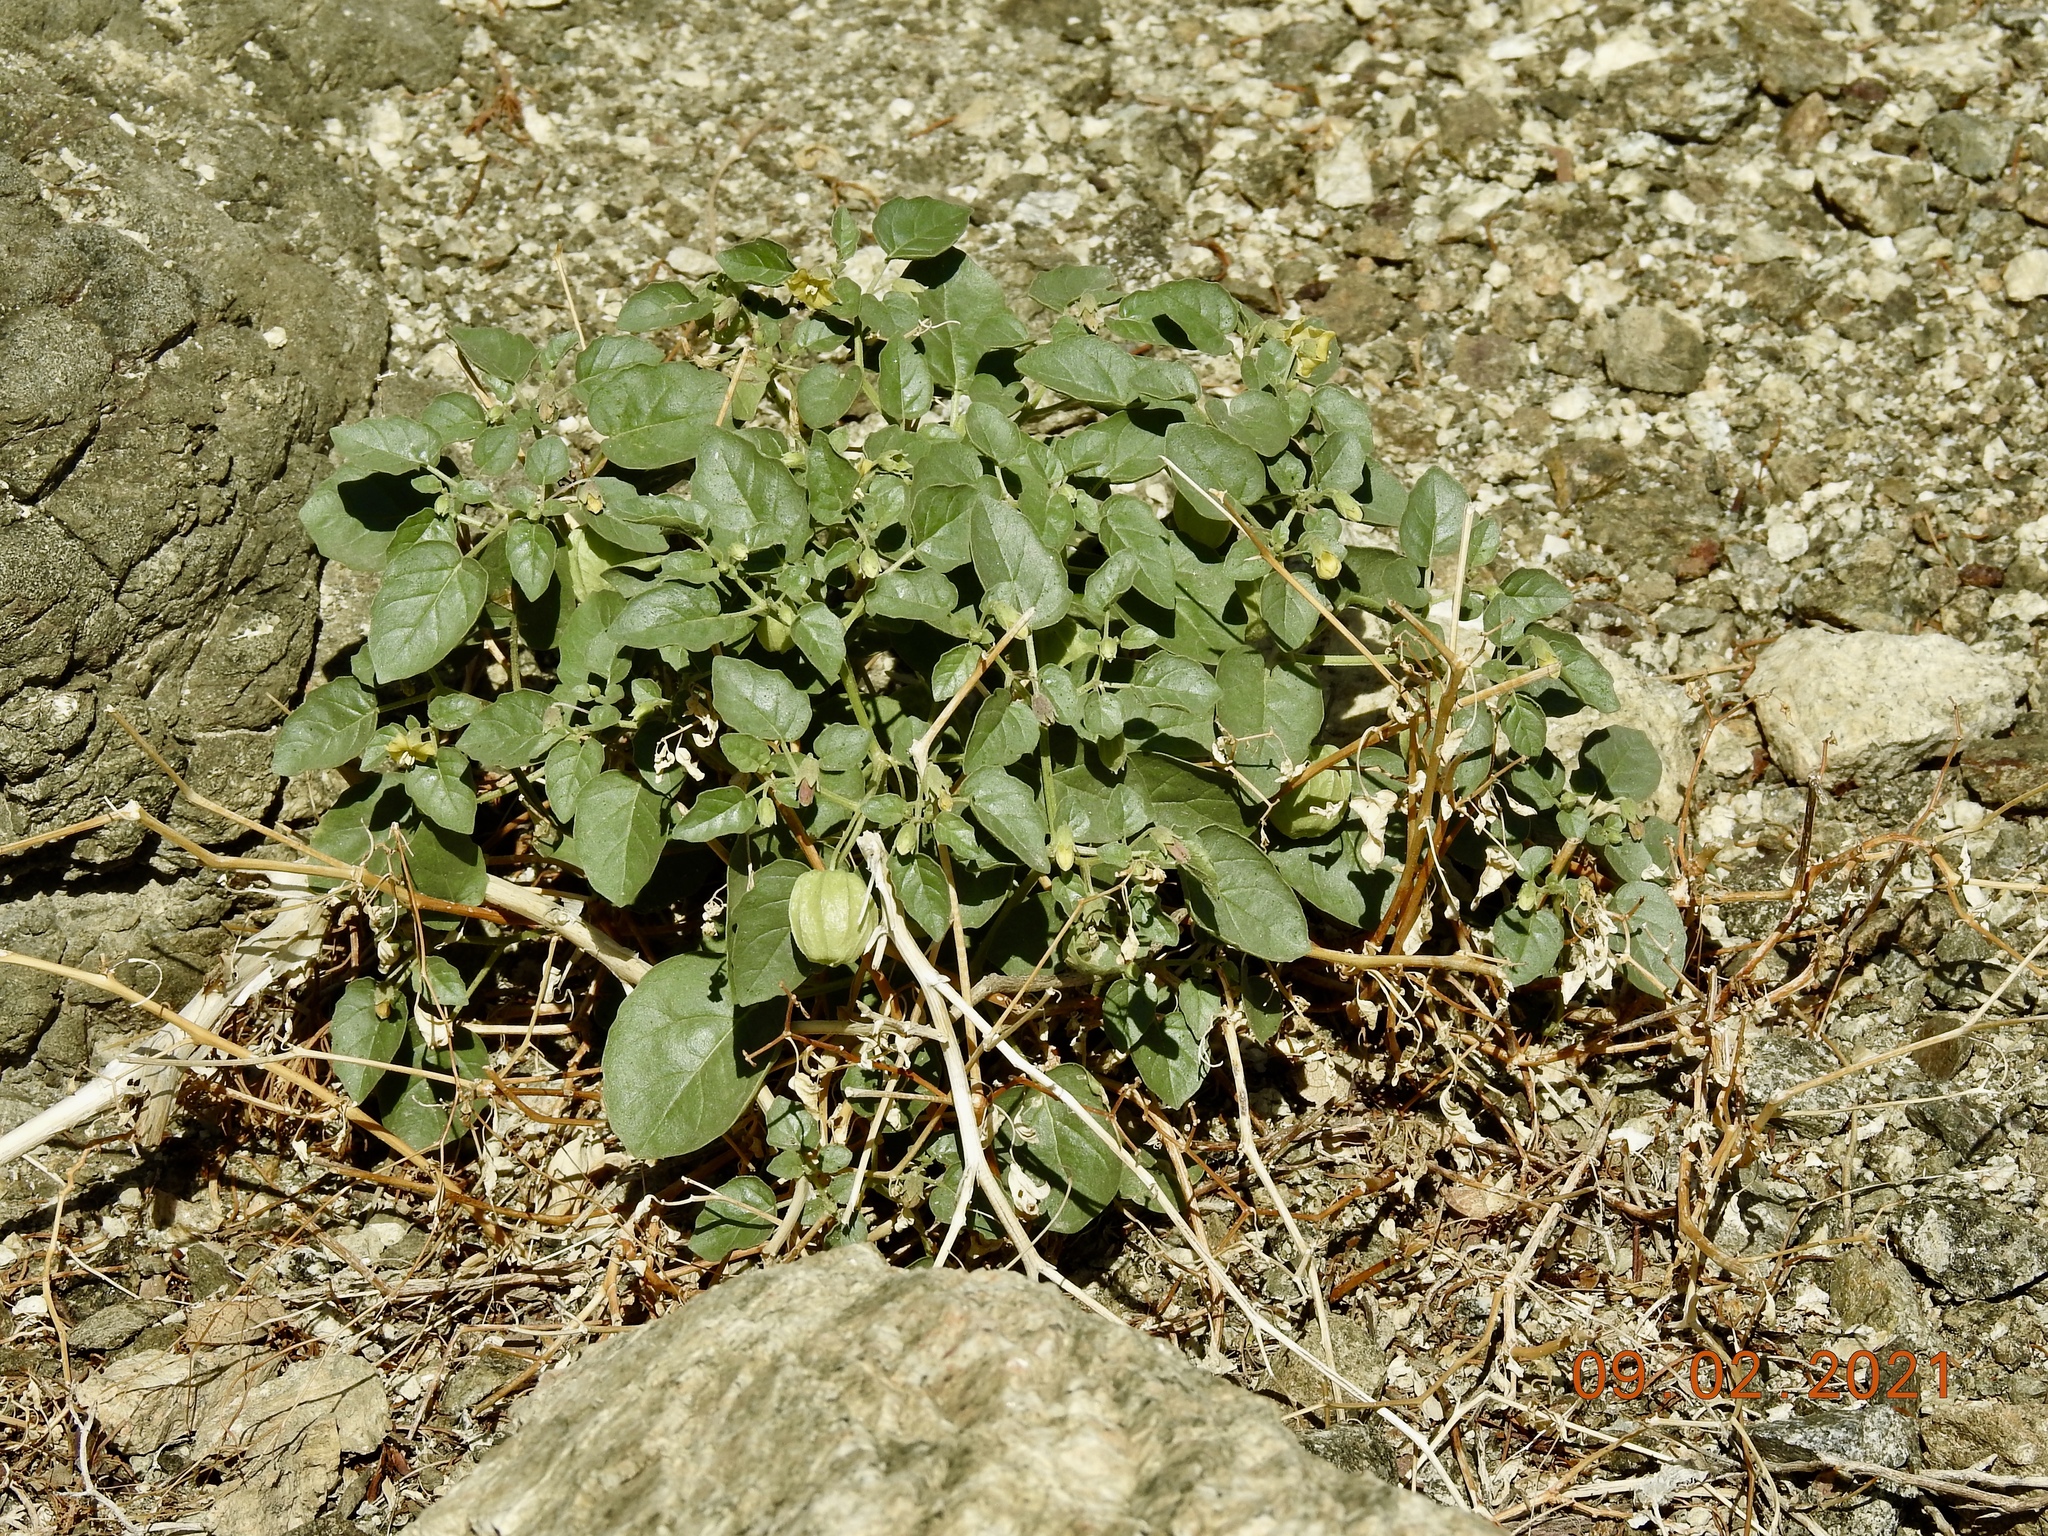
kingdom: Plantae
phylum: Tracheophyta
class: Magnoliopsida
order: Solanales
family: Solanaceae
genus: Physalis
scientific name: Physalis crassifolia
